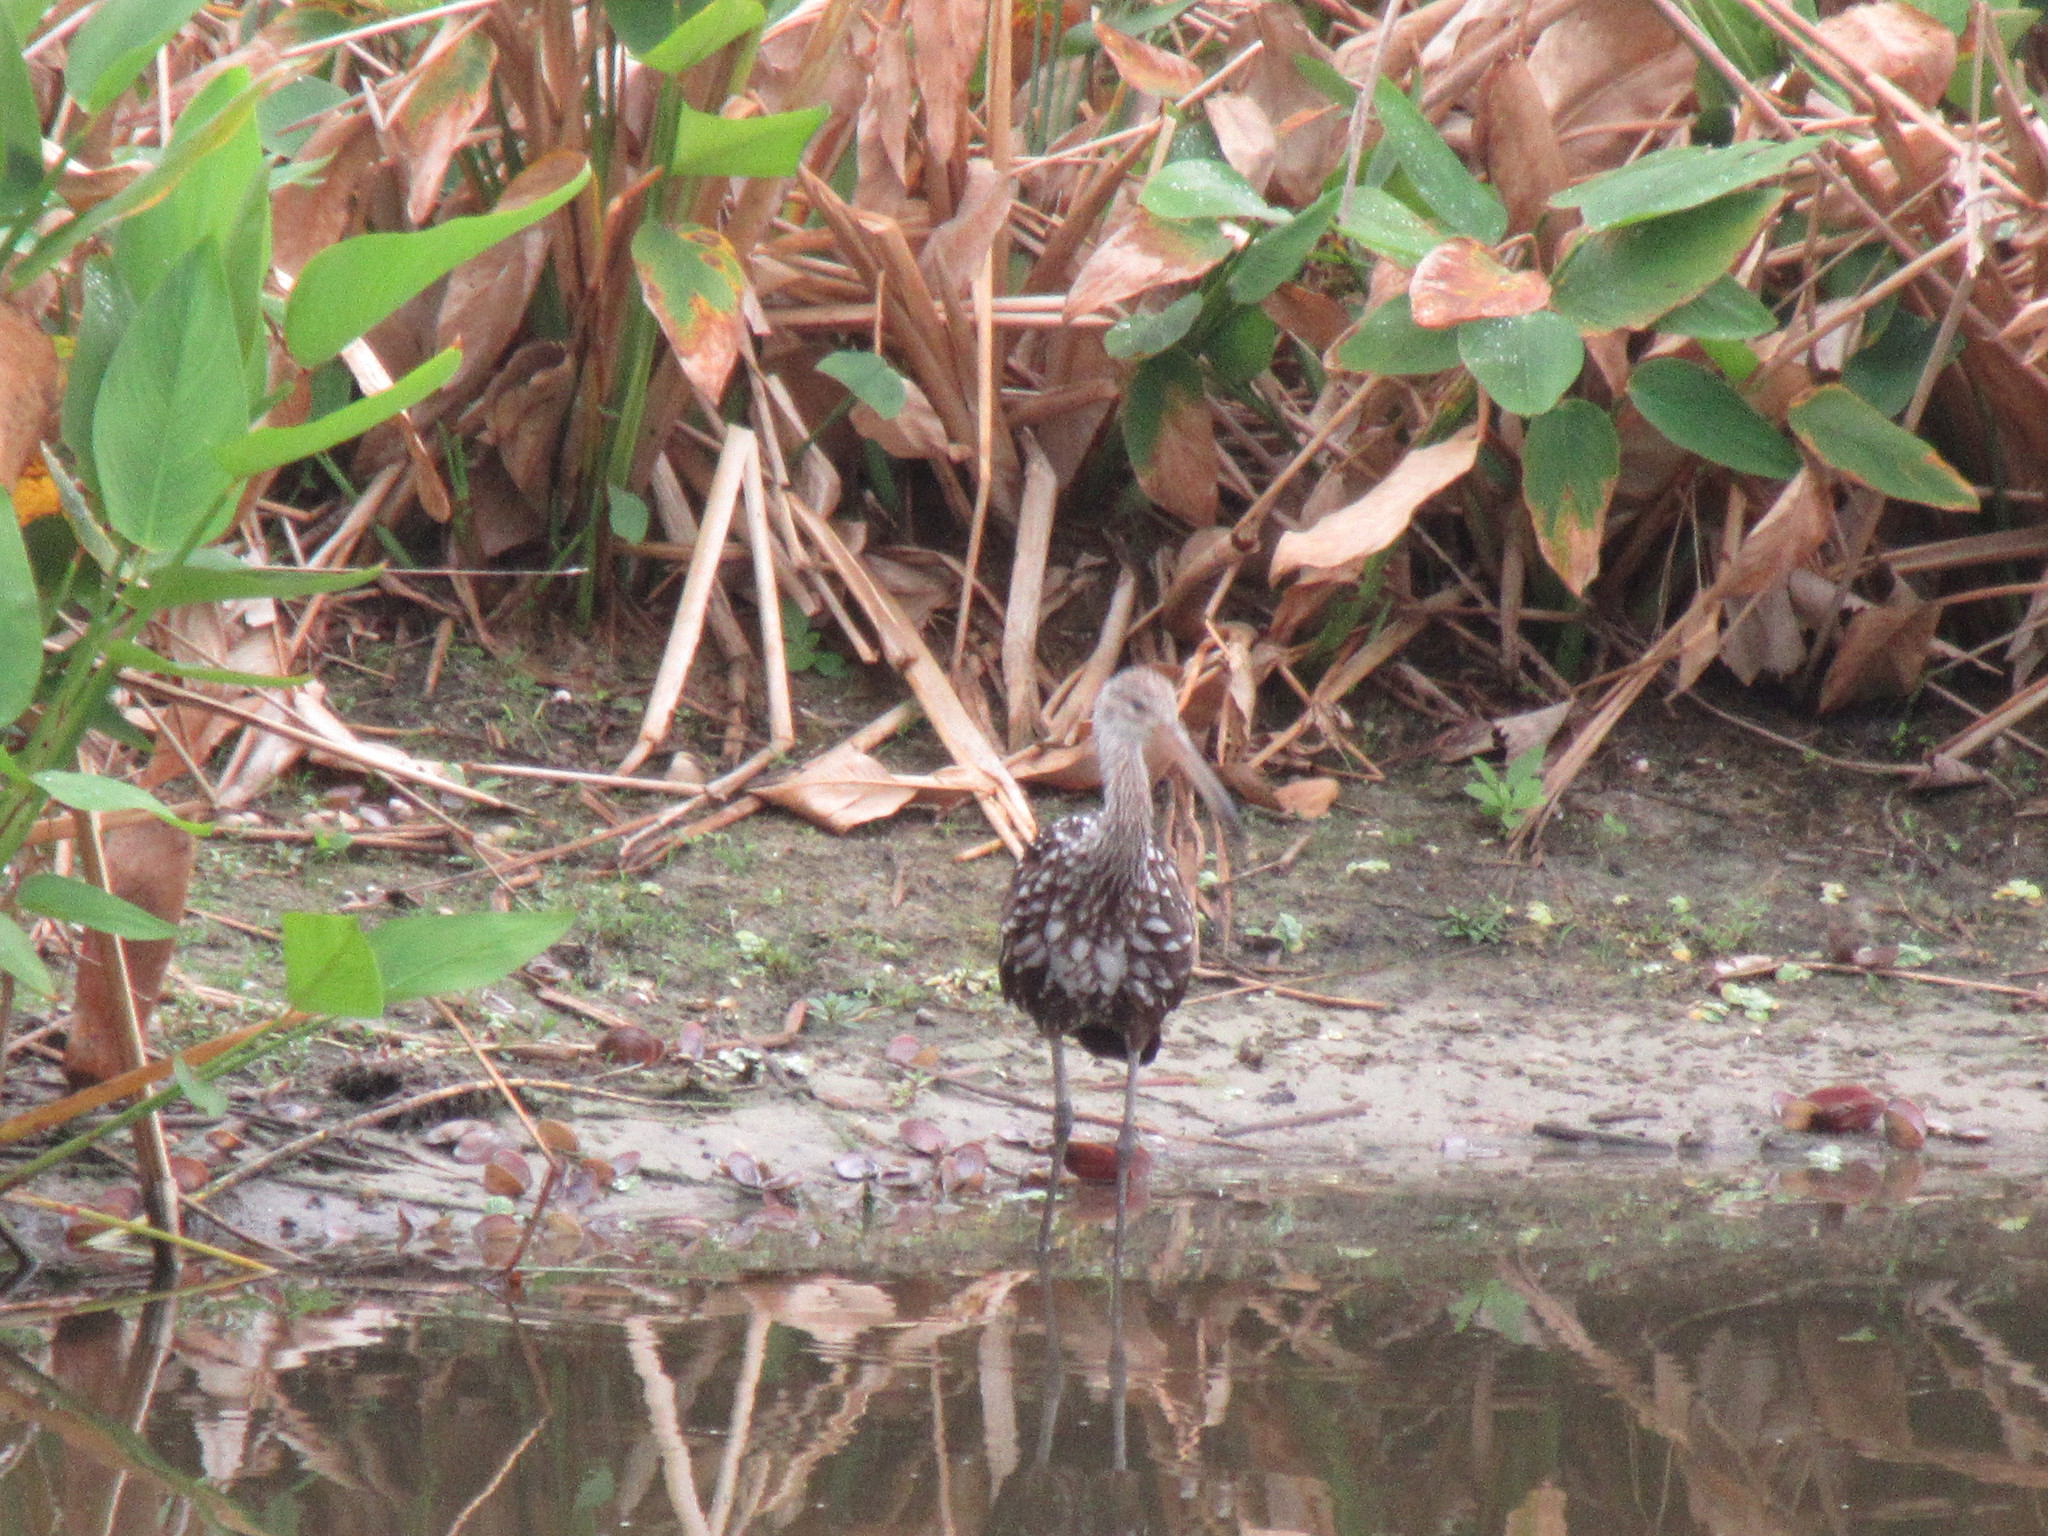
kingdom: Animalia
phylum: Chordata
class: Aves
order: Gruiformes
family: Aramidae
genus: Aramus
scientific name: Aramus guarauna
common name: Limpkin
